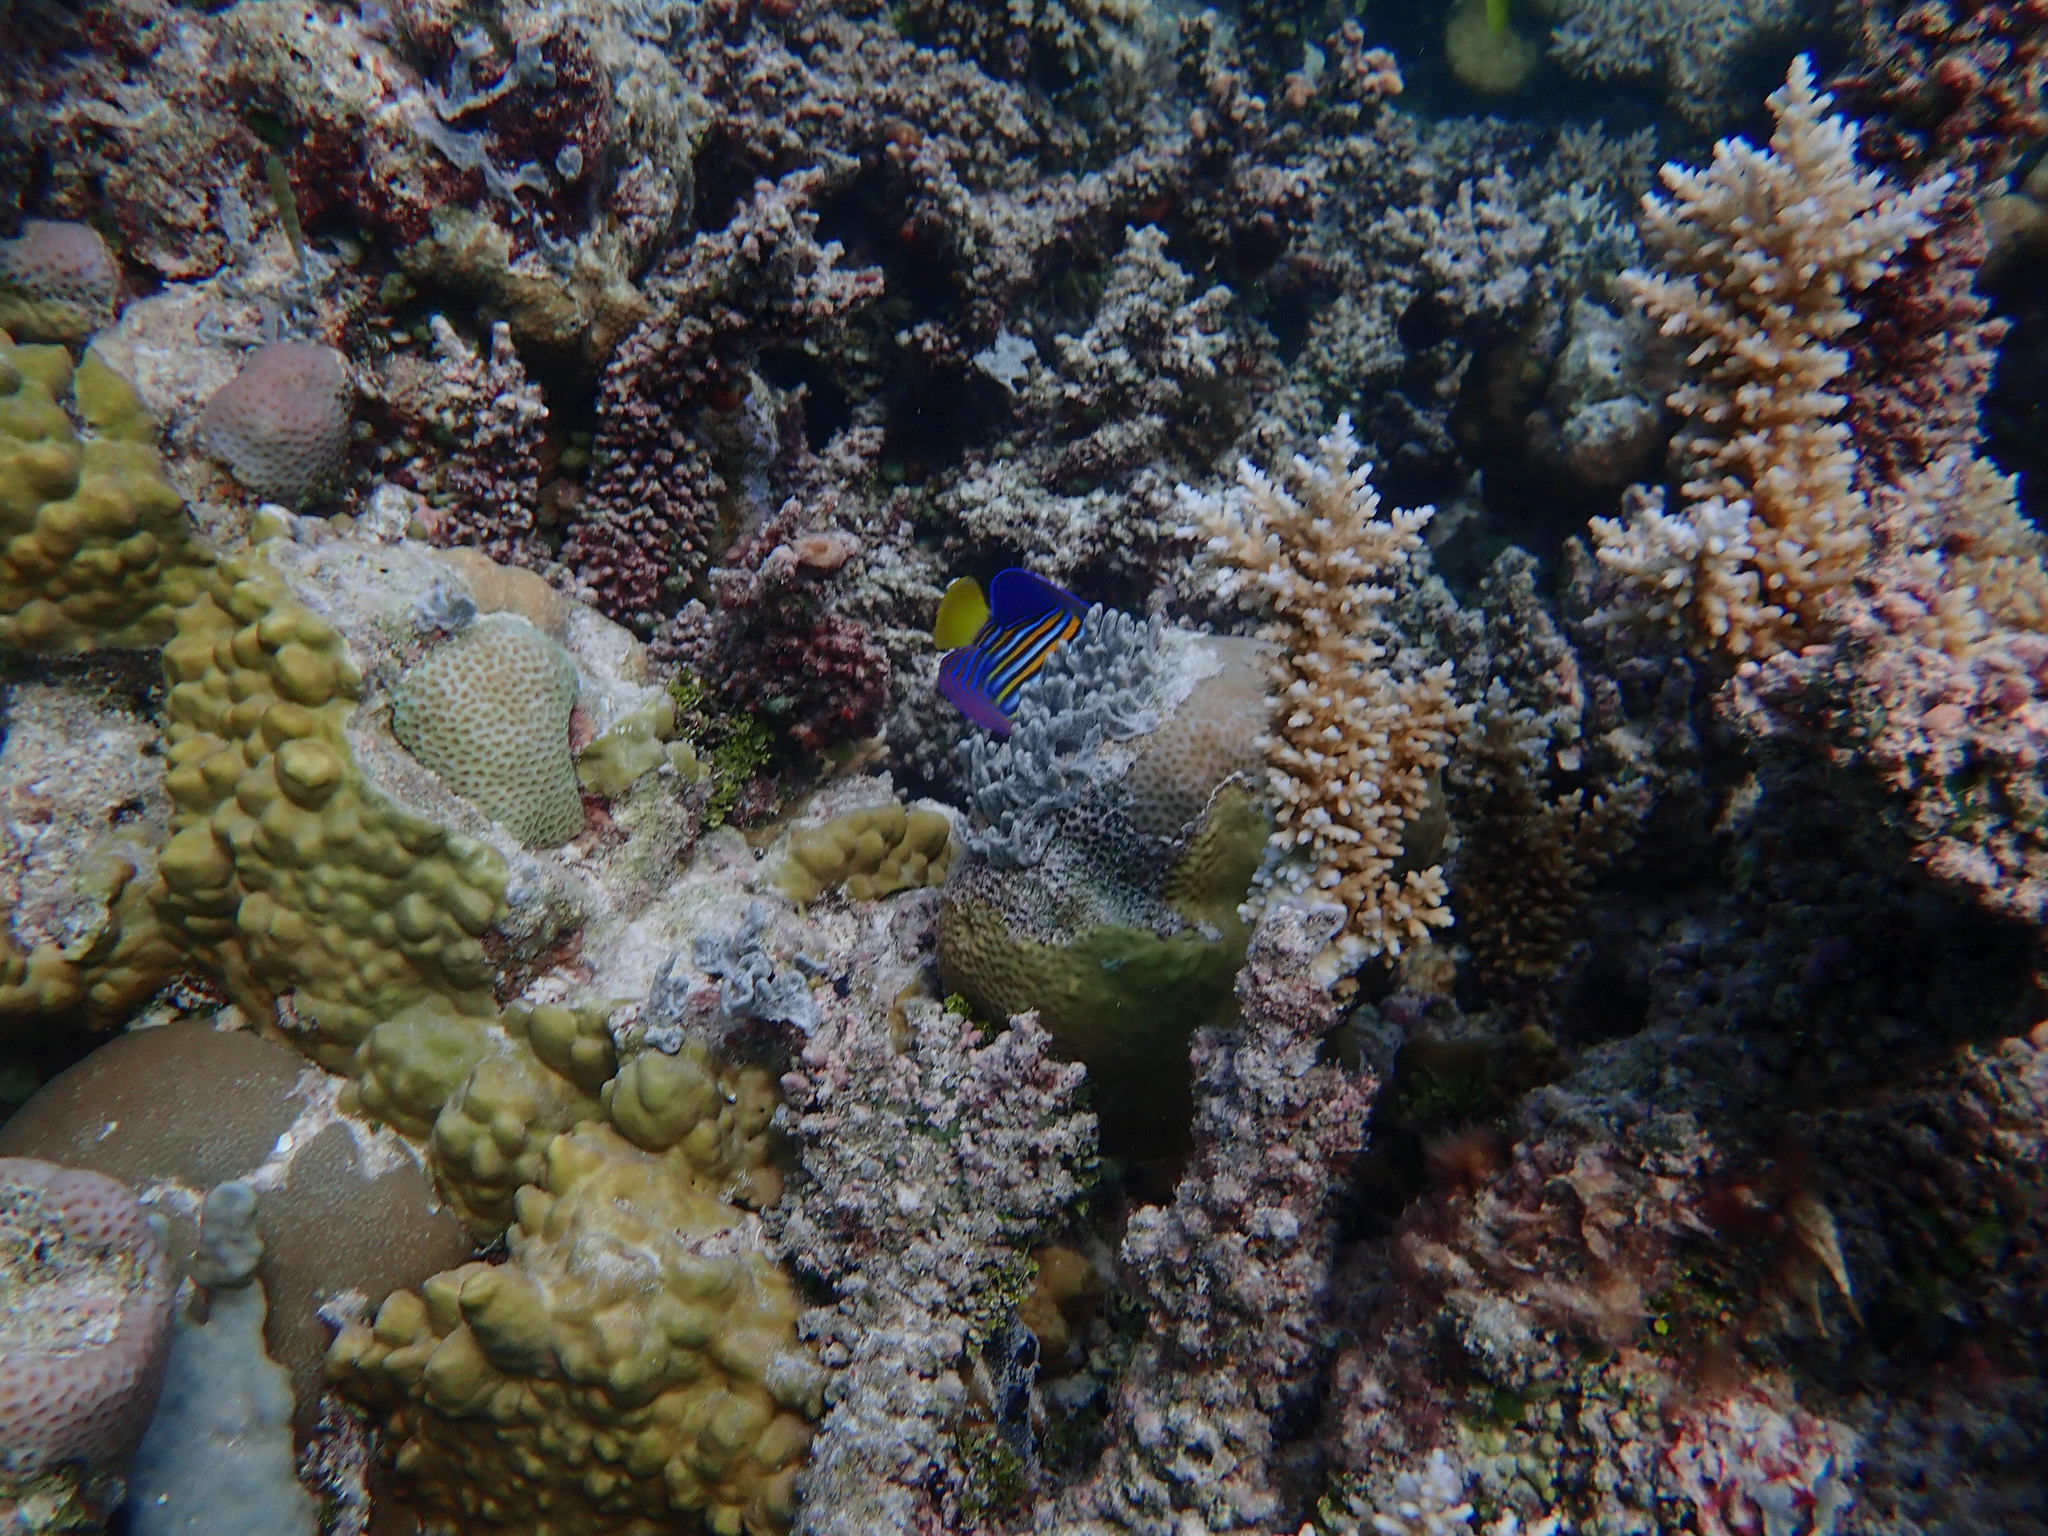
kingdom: Animalia
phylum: Chordata
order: Perciformes
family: Pomacanthidae
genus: Pygoplites
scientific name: Pygoplites diacanthus
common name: Regal angelfish
